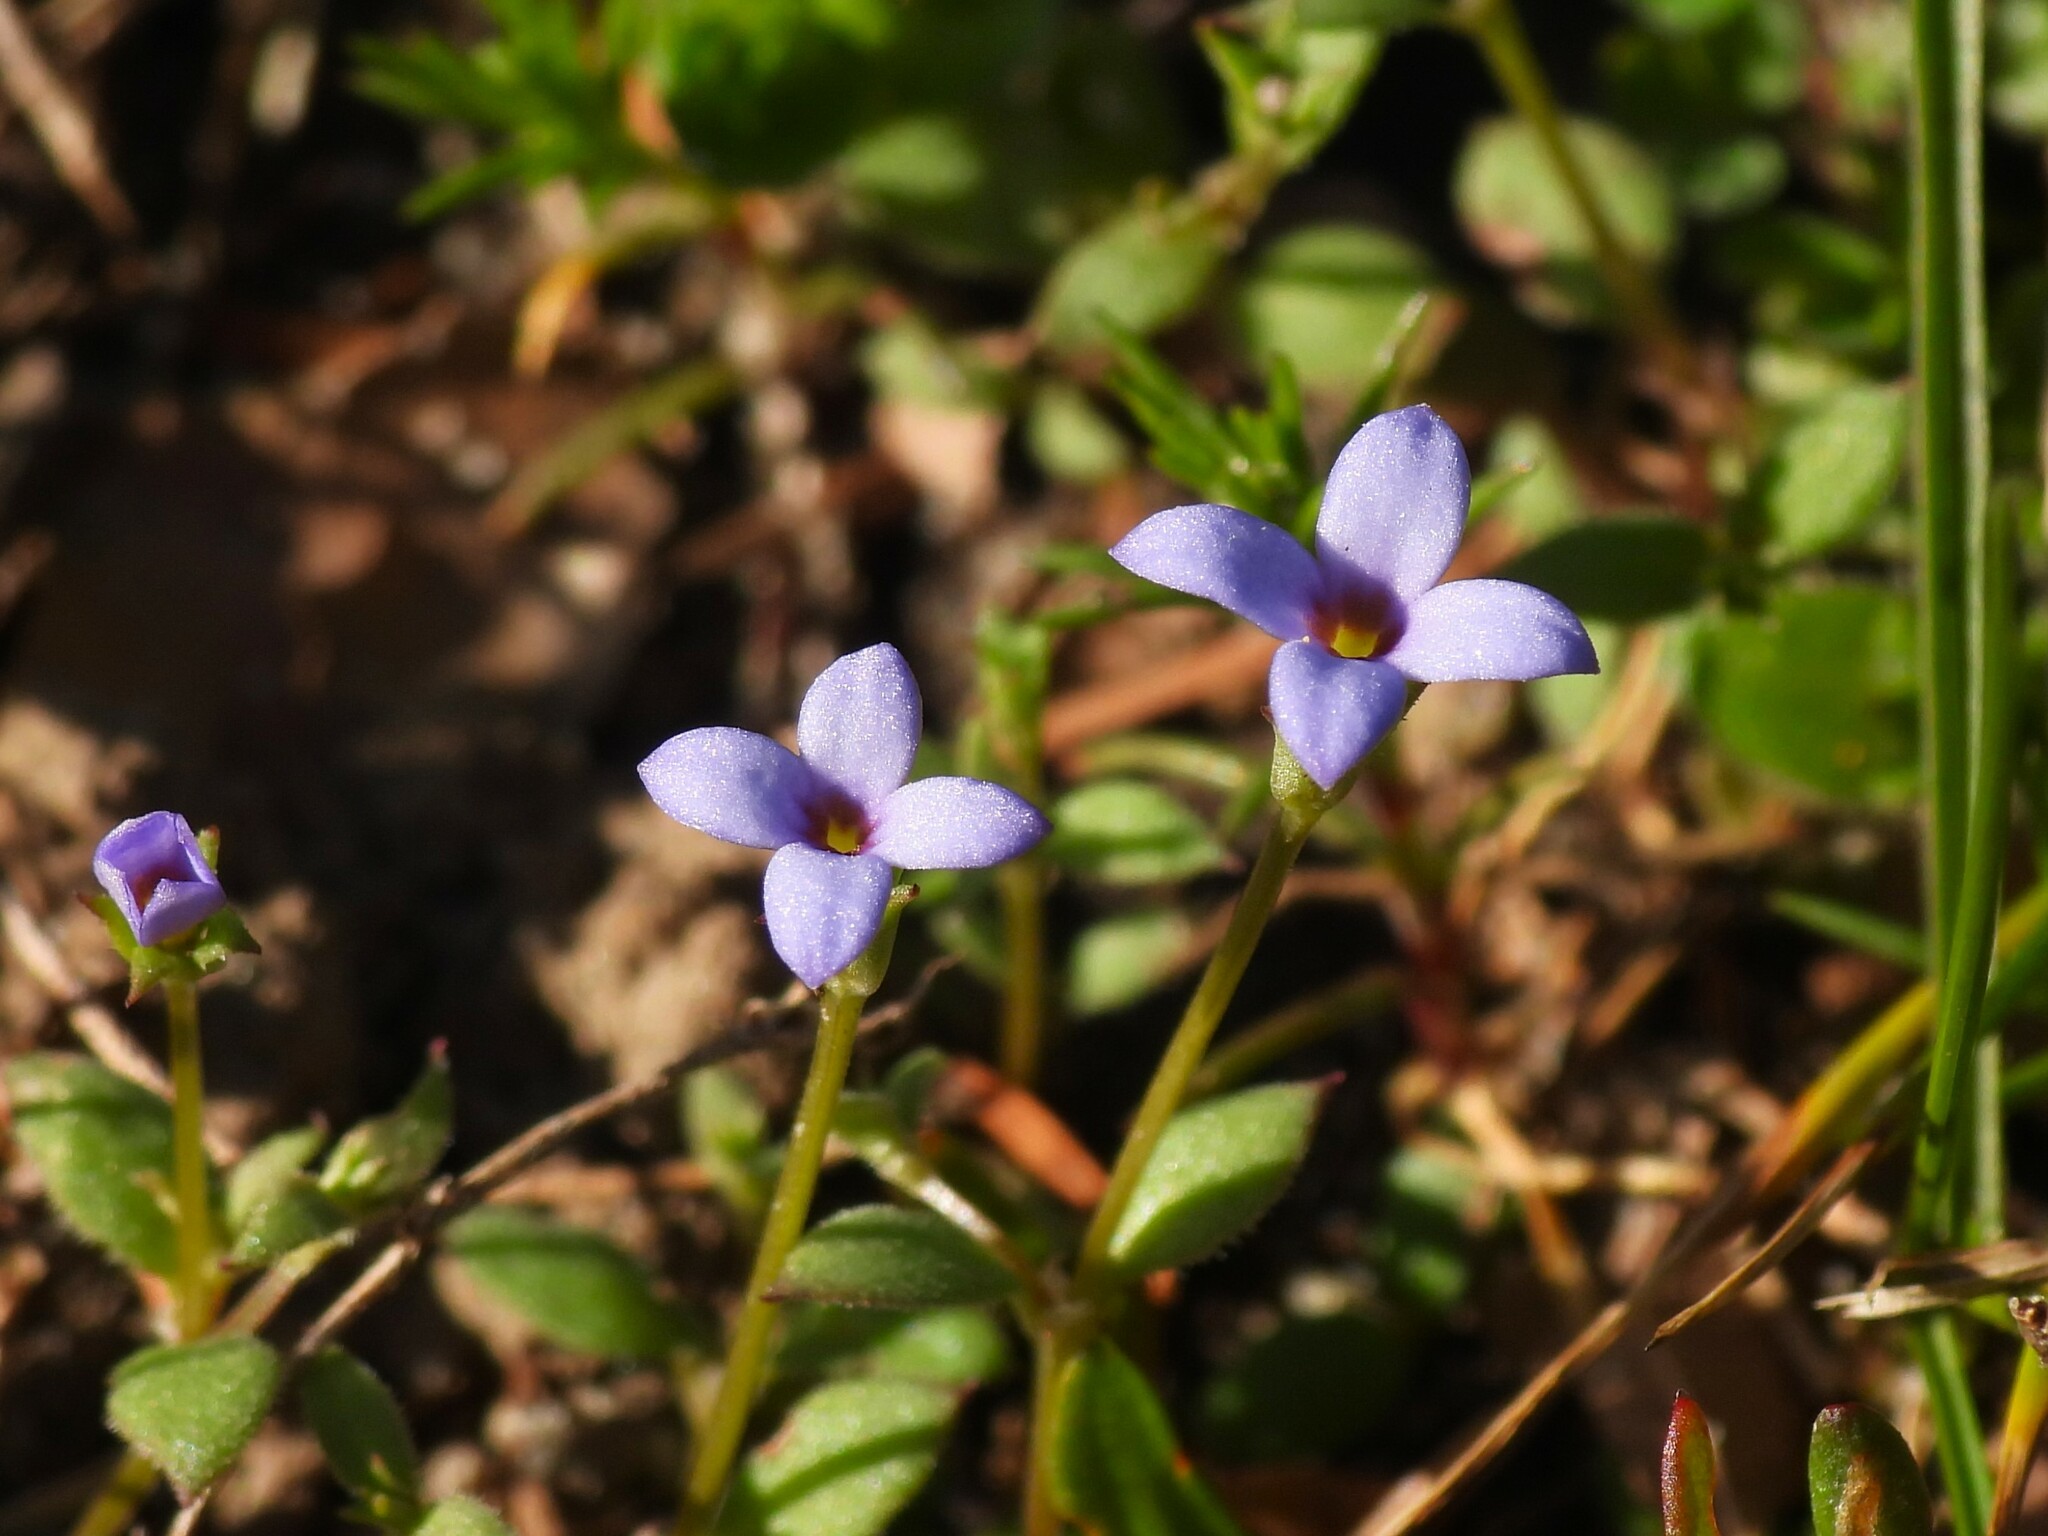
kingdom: Plantae
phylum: Tracheophyta
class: Magnoliopsida
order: Gentianales
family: Rubiaceae
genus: Houstonia
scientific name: Houstonia pusilla
